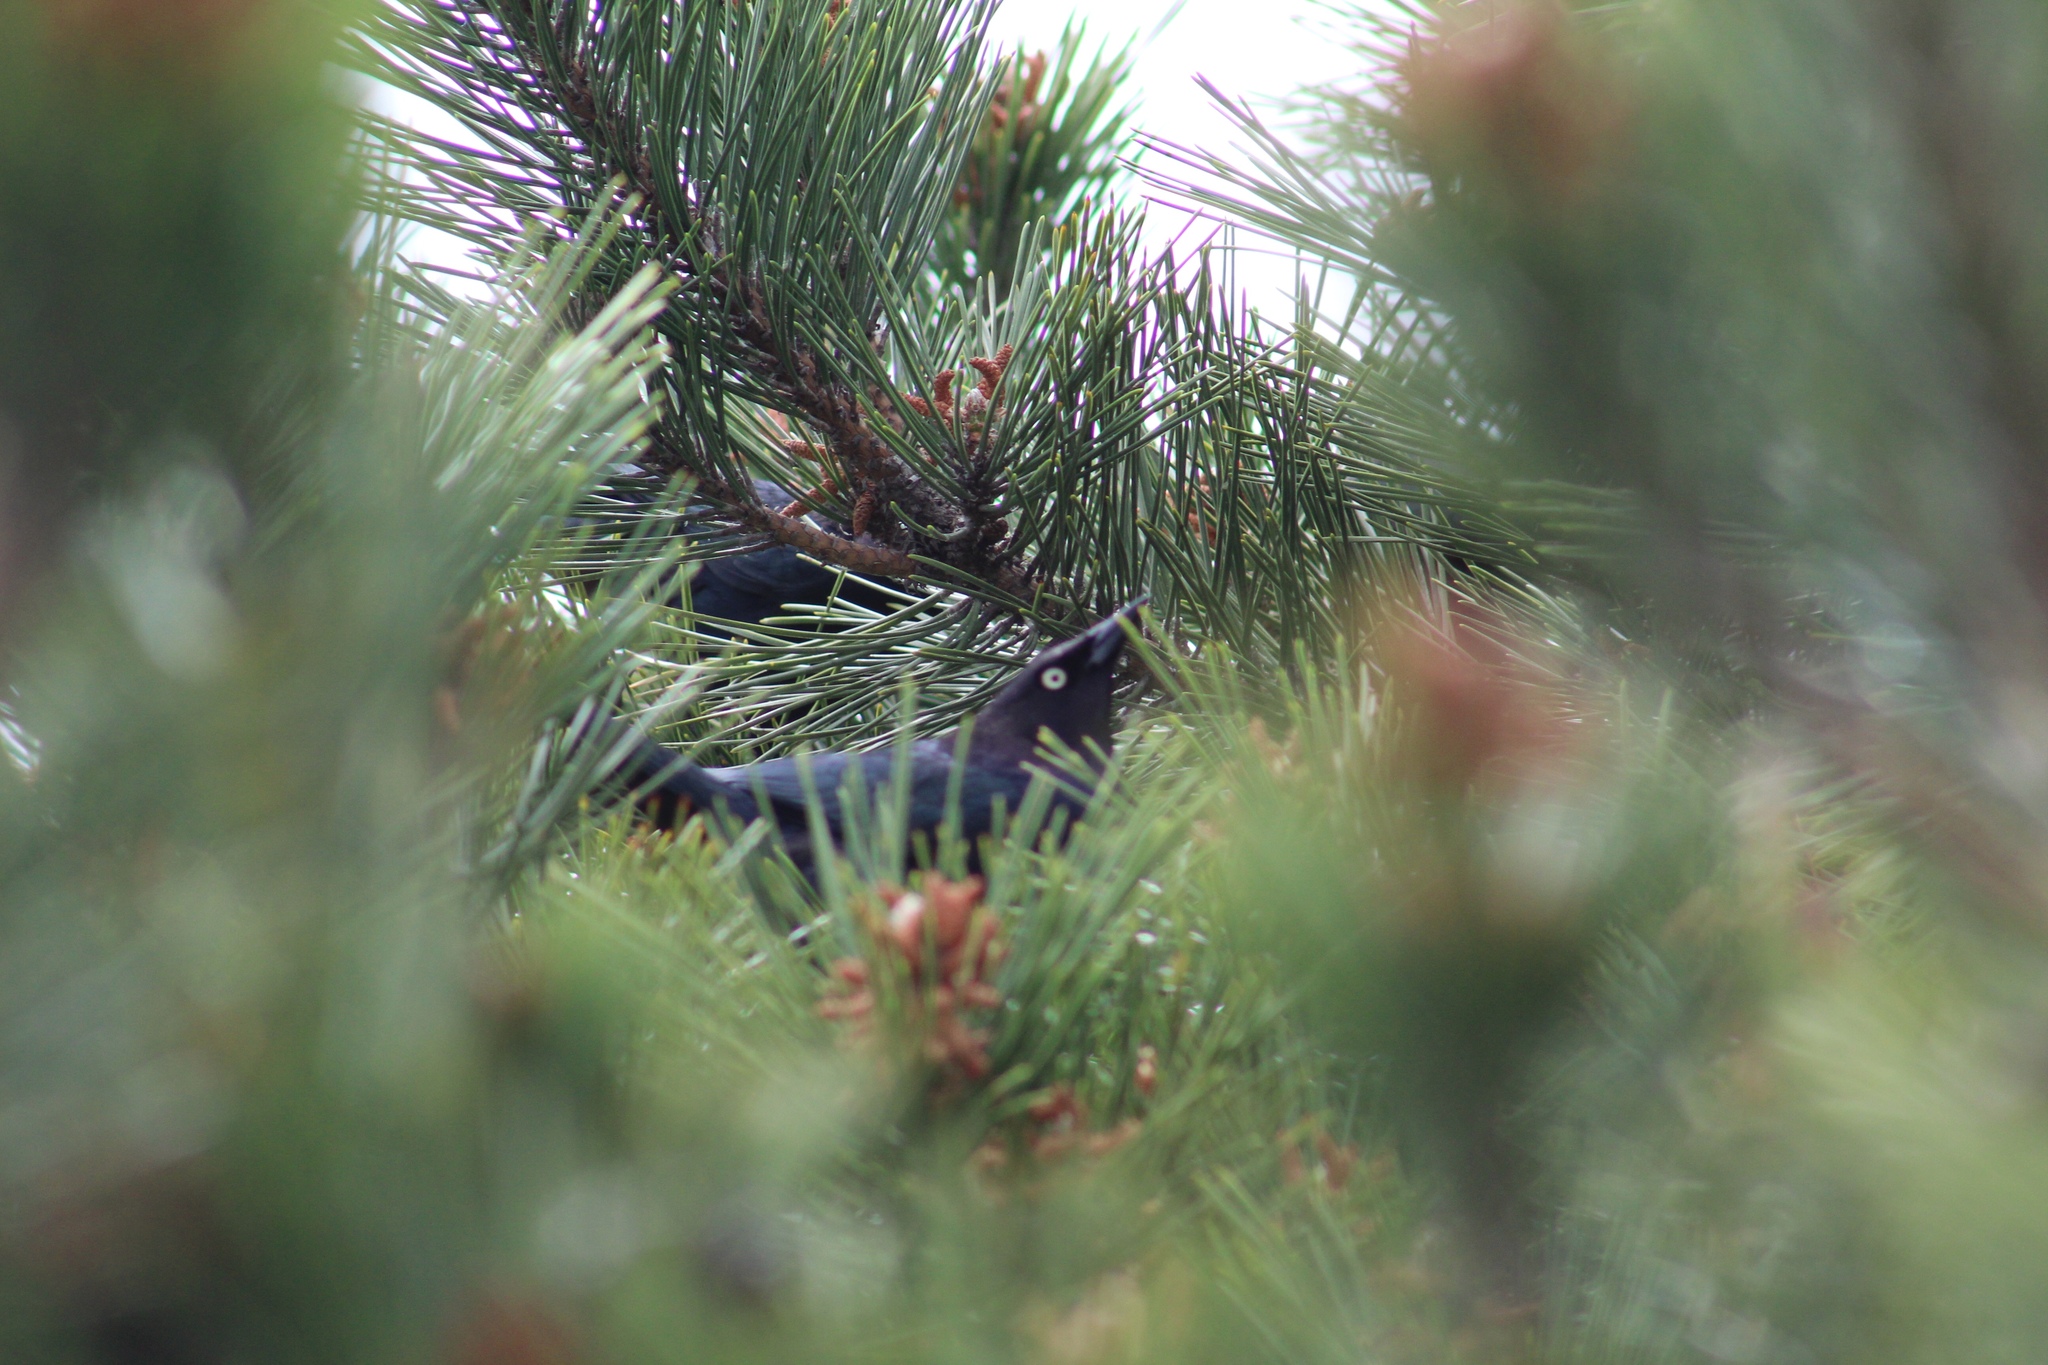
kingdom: Animalia
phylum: Chordata
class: Aves
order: Passeriformes
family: Icteridae
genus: Euphagus
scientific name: Euphagus cyanocephalus
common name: Brewer's blackbird
